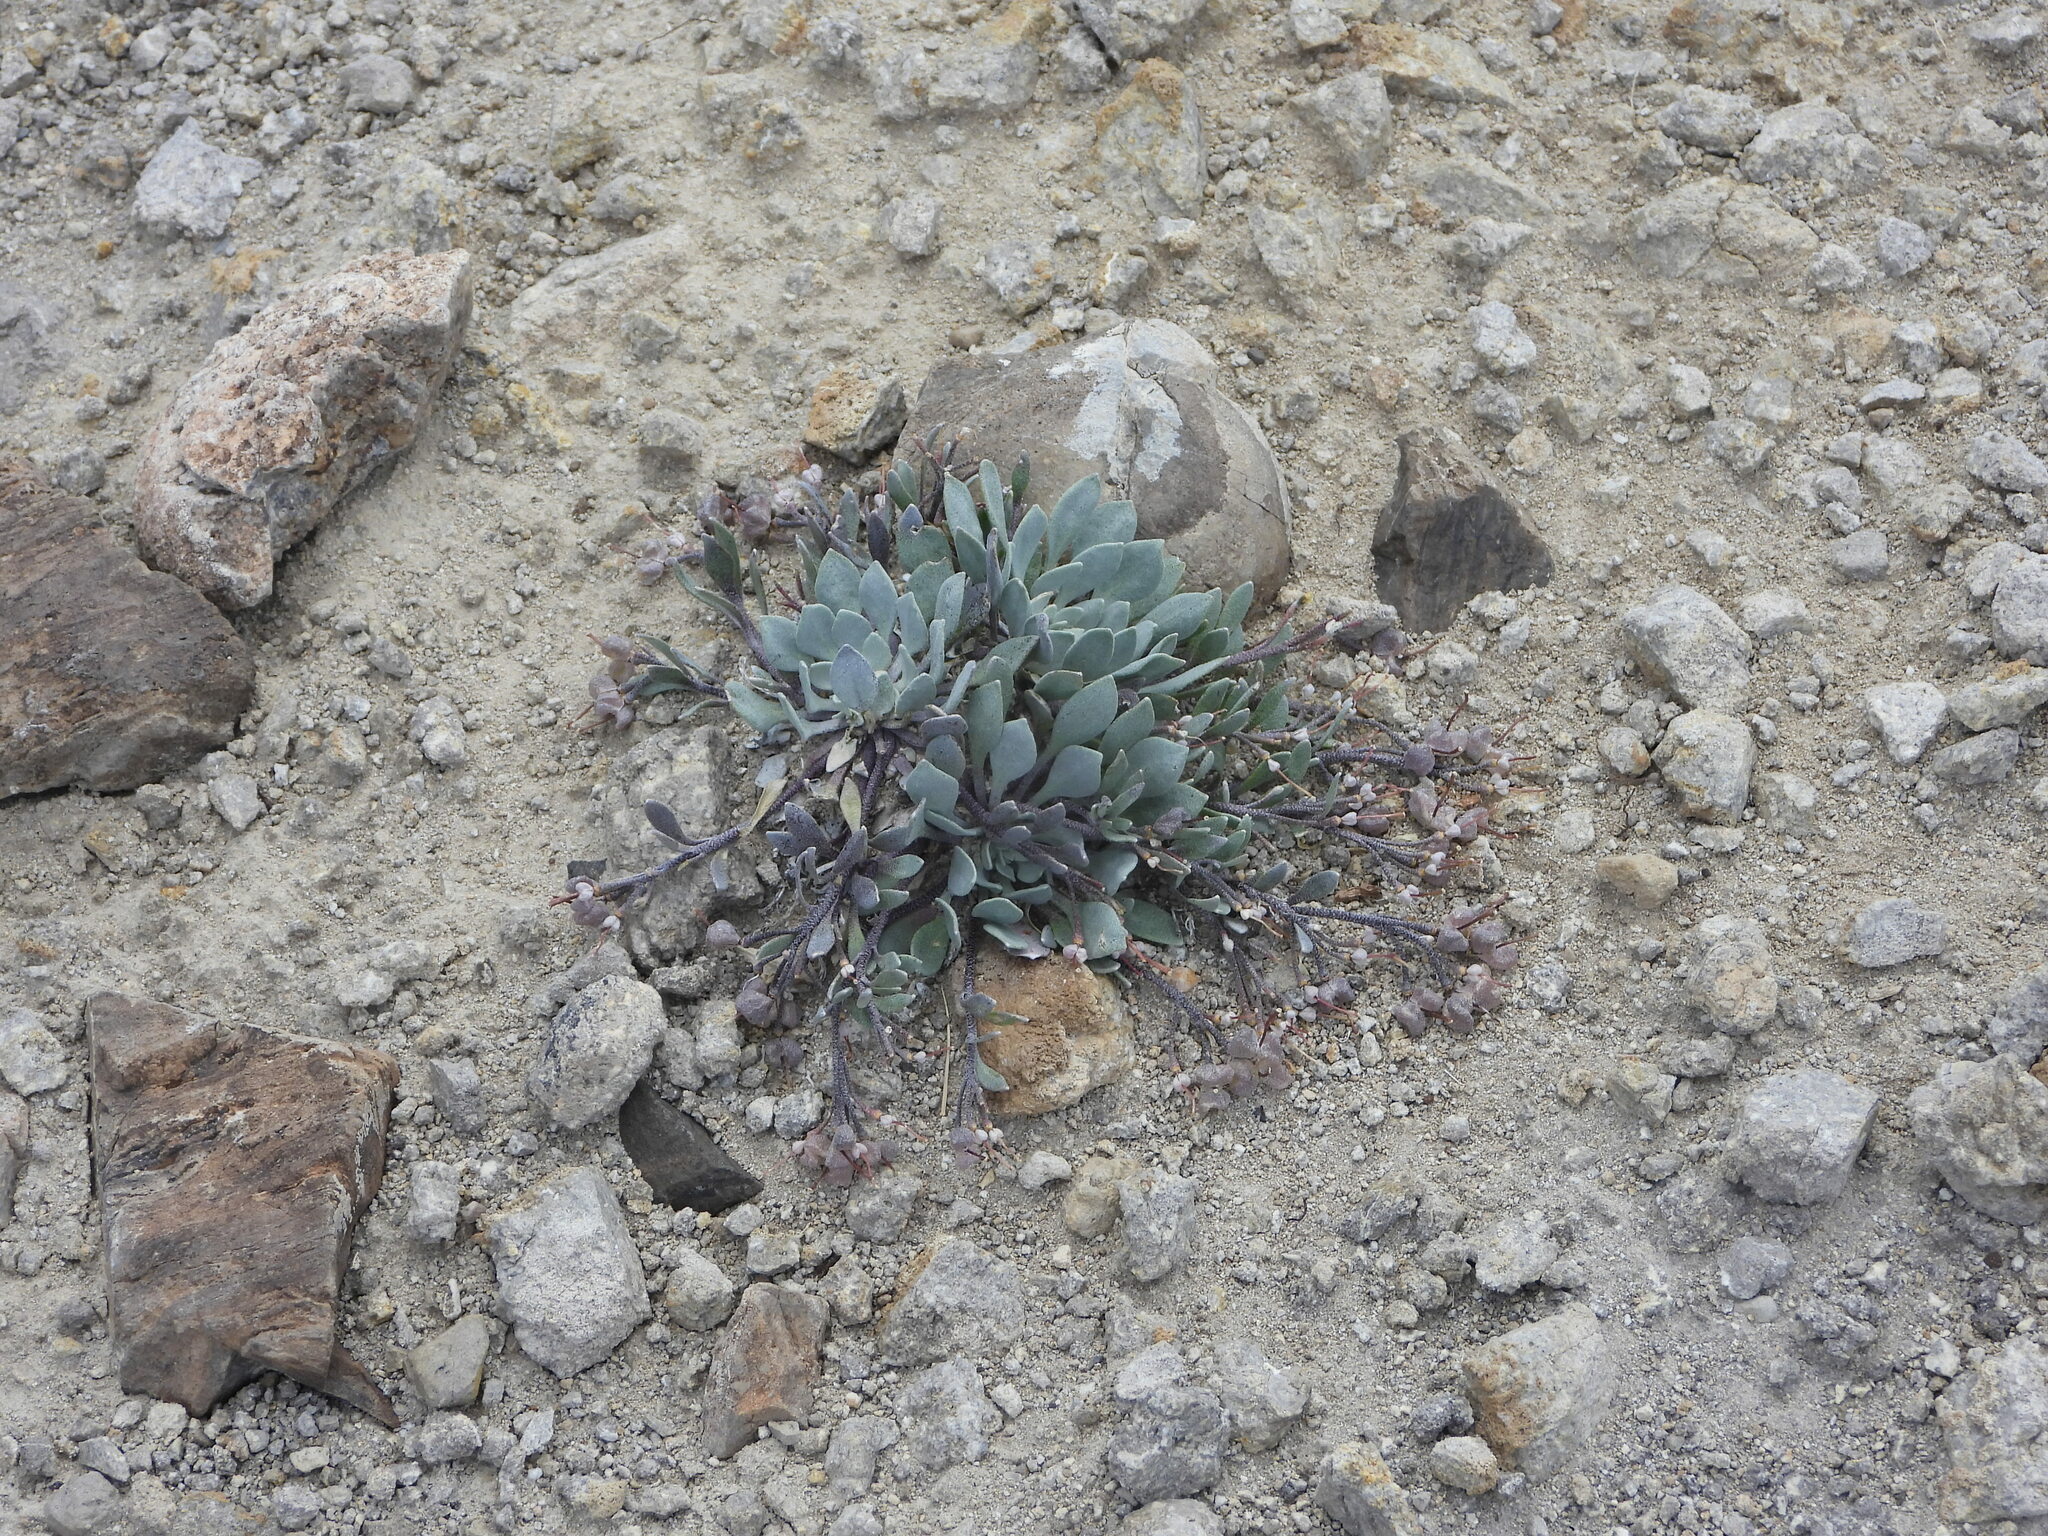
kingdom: Plantae
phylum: Tracheophyta
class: Magnoliopsida
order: Brassicales
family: Brassicaceae
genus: Physaria
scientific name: Physaria alpina
